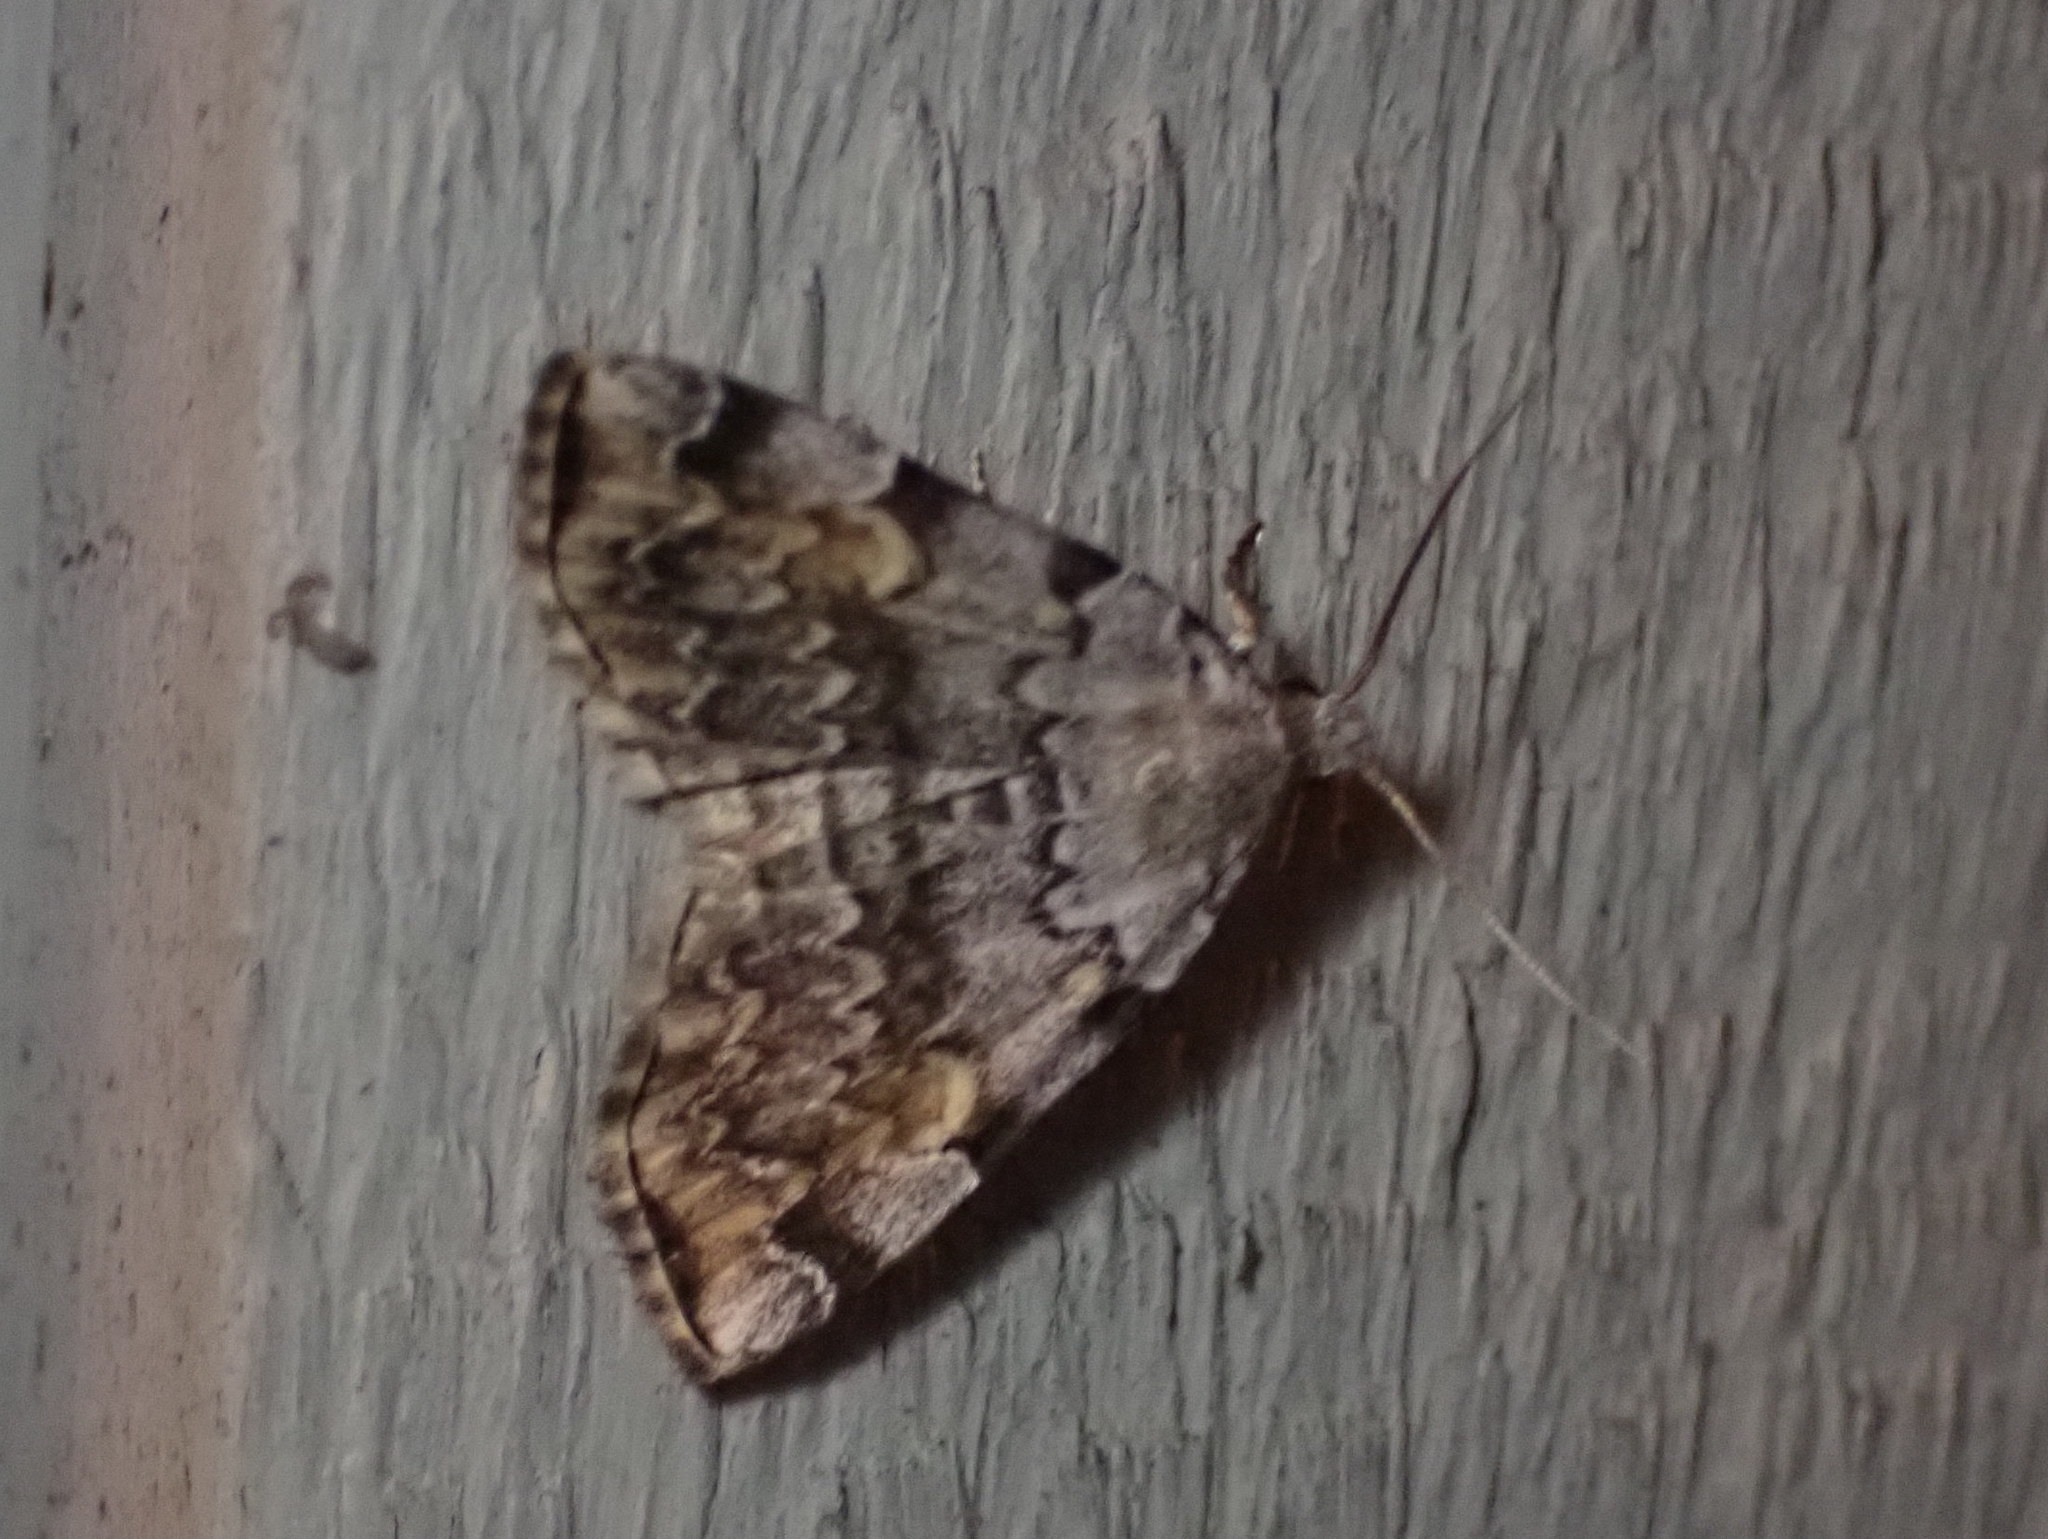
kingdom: Animalia
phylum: Arthropoda
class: Insecta
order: Lepidoptera
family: Erebidae
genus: Idia
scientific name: Idia americalis
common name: American idia moth
